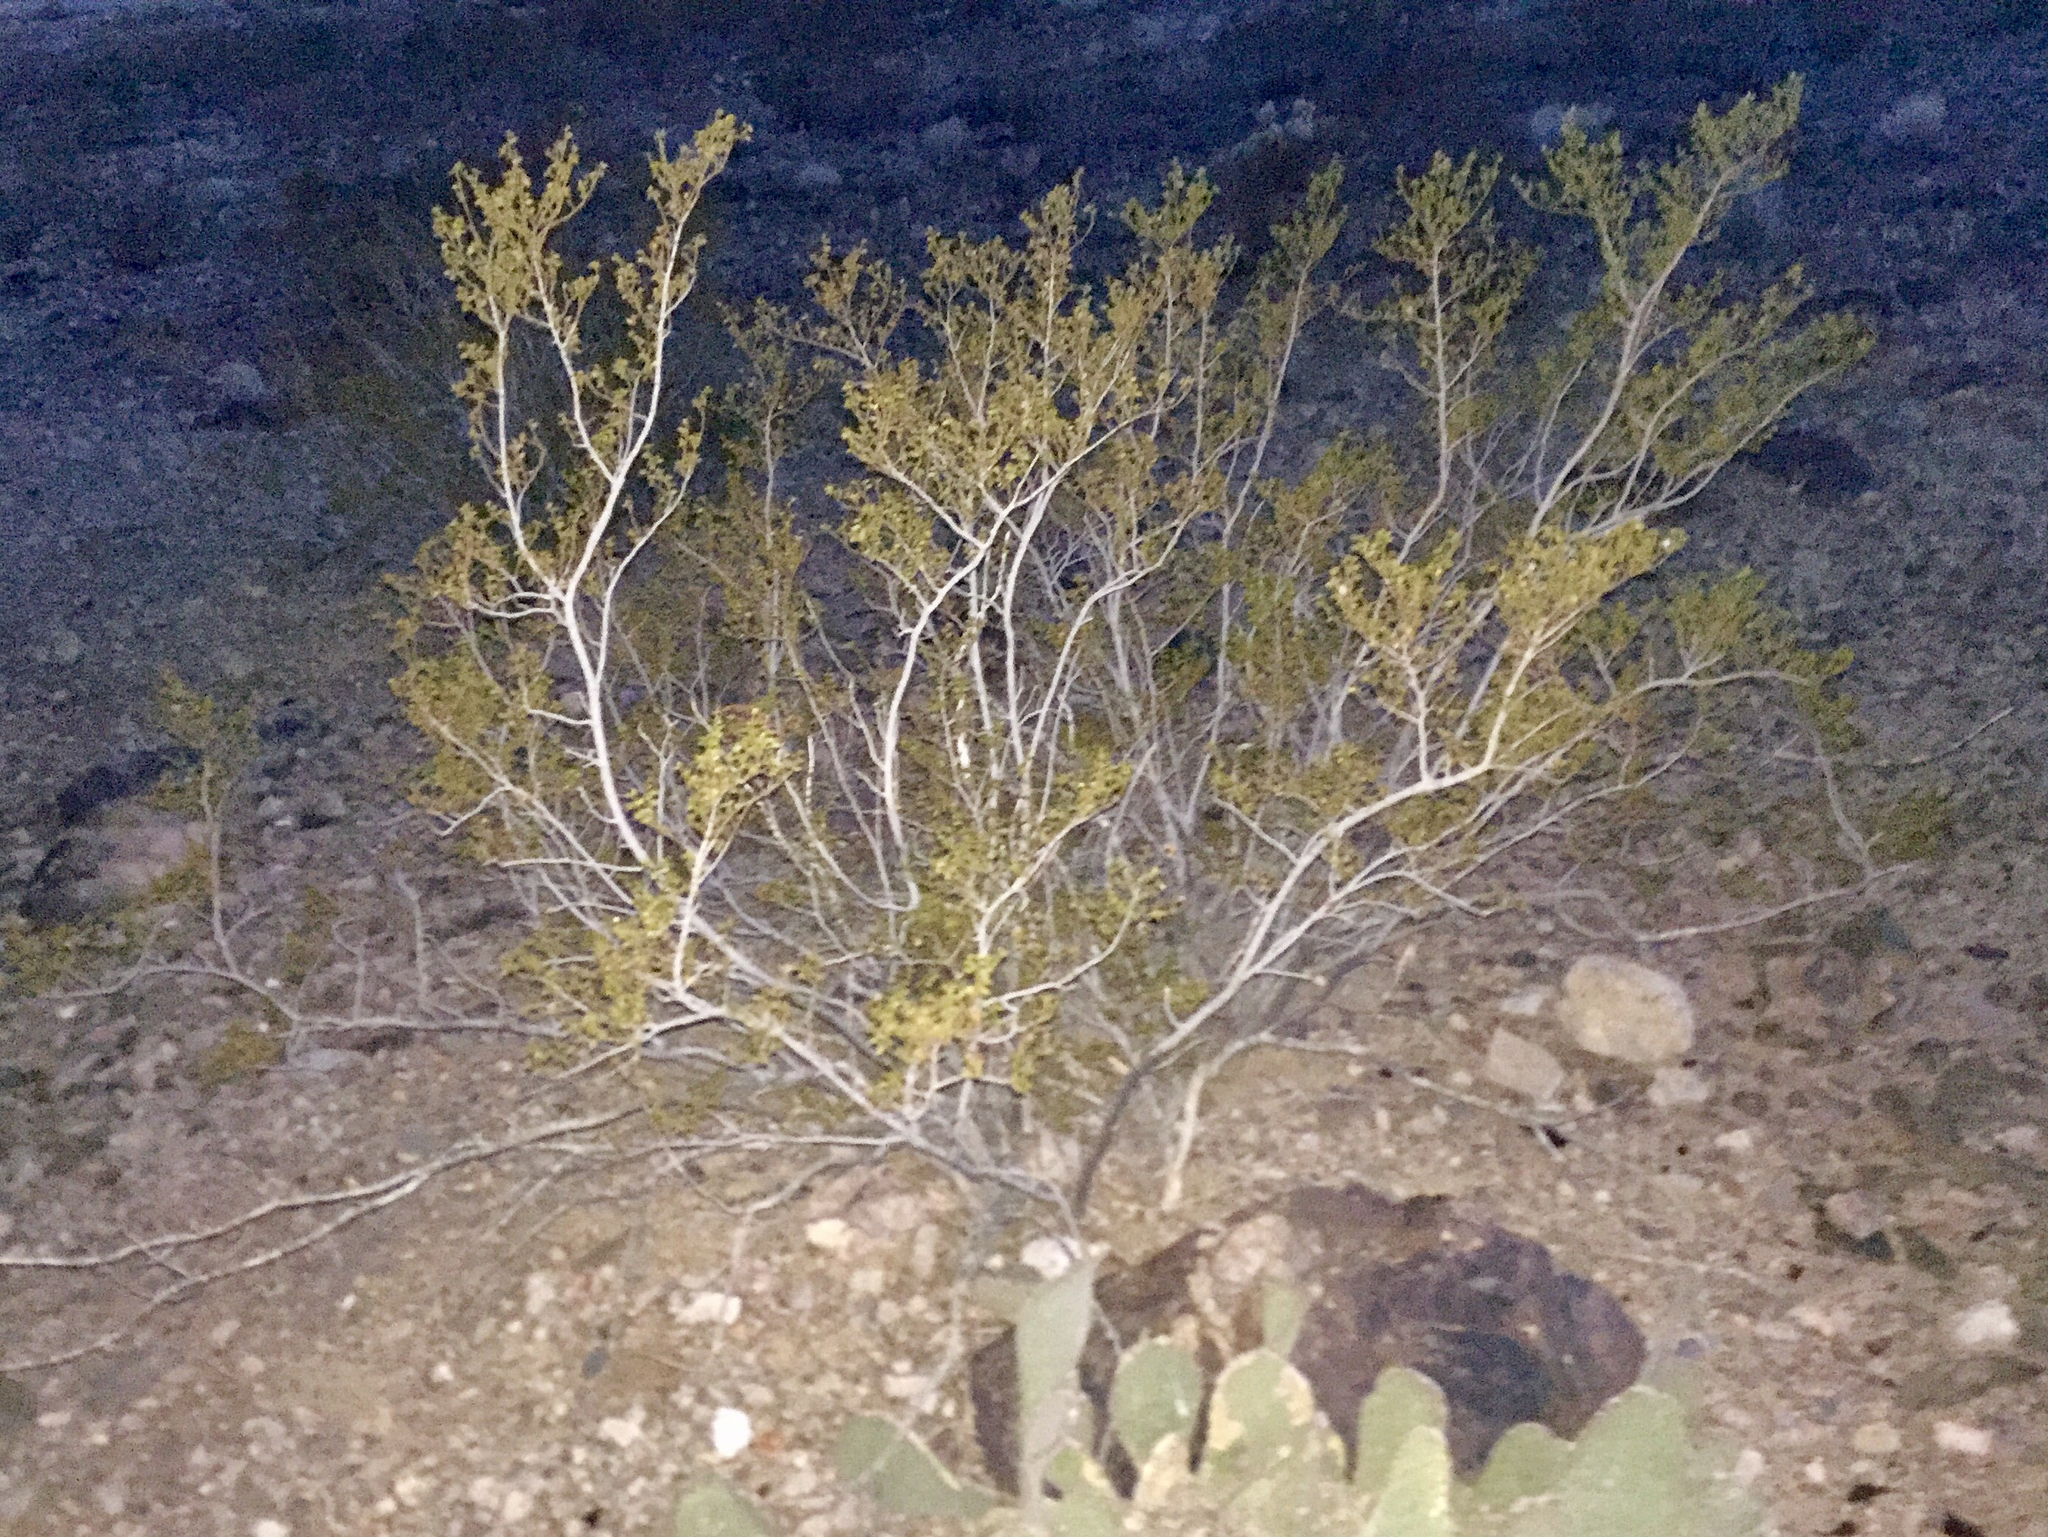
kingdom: Plantae
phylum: Tracheophyta
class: Magnoliopsida
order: Zygophyllales
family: Zygophyllaceae
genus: Larrea
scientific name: Larrea tridentata
